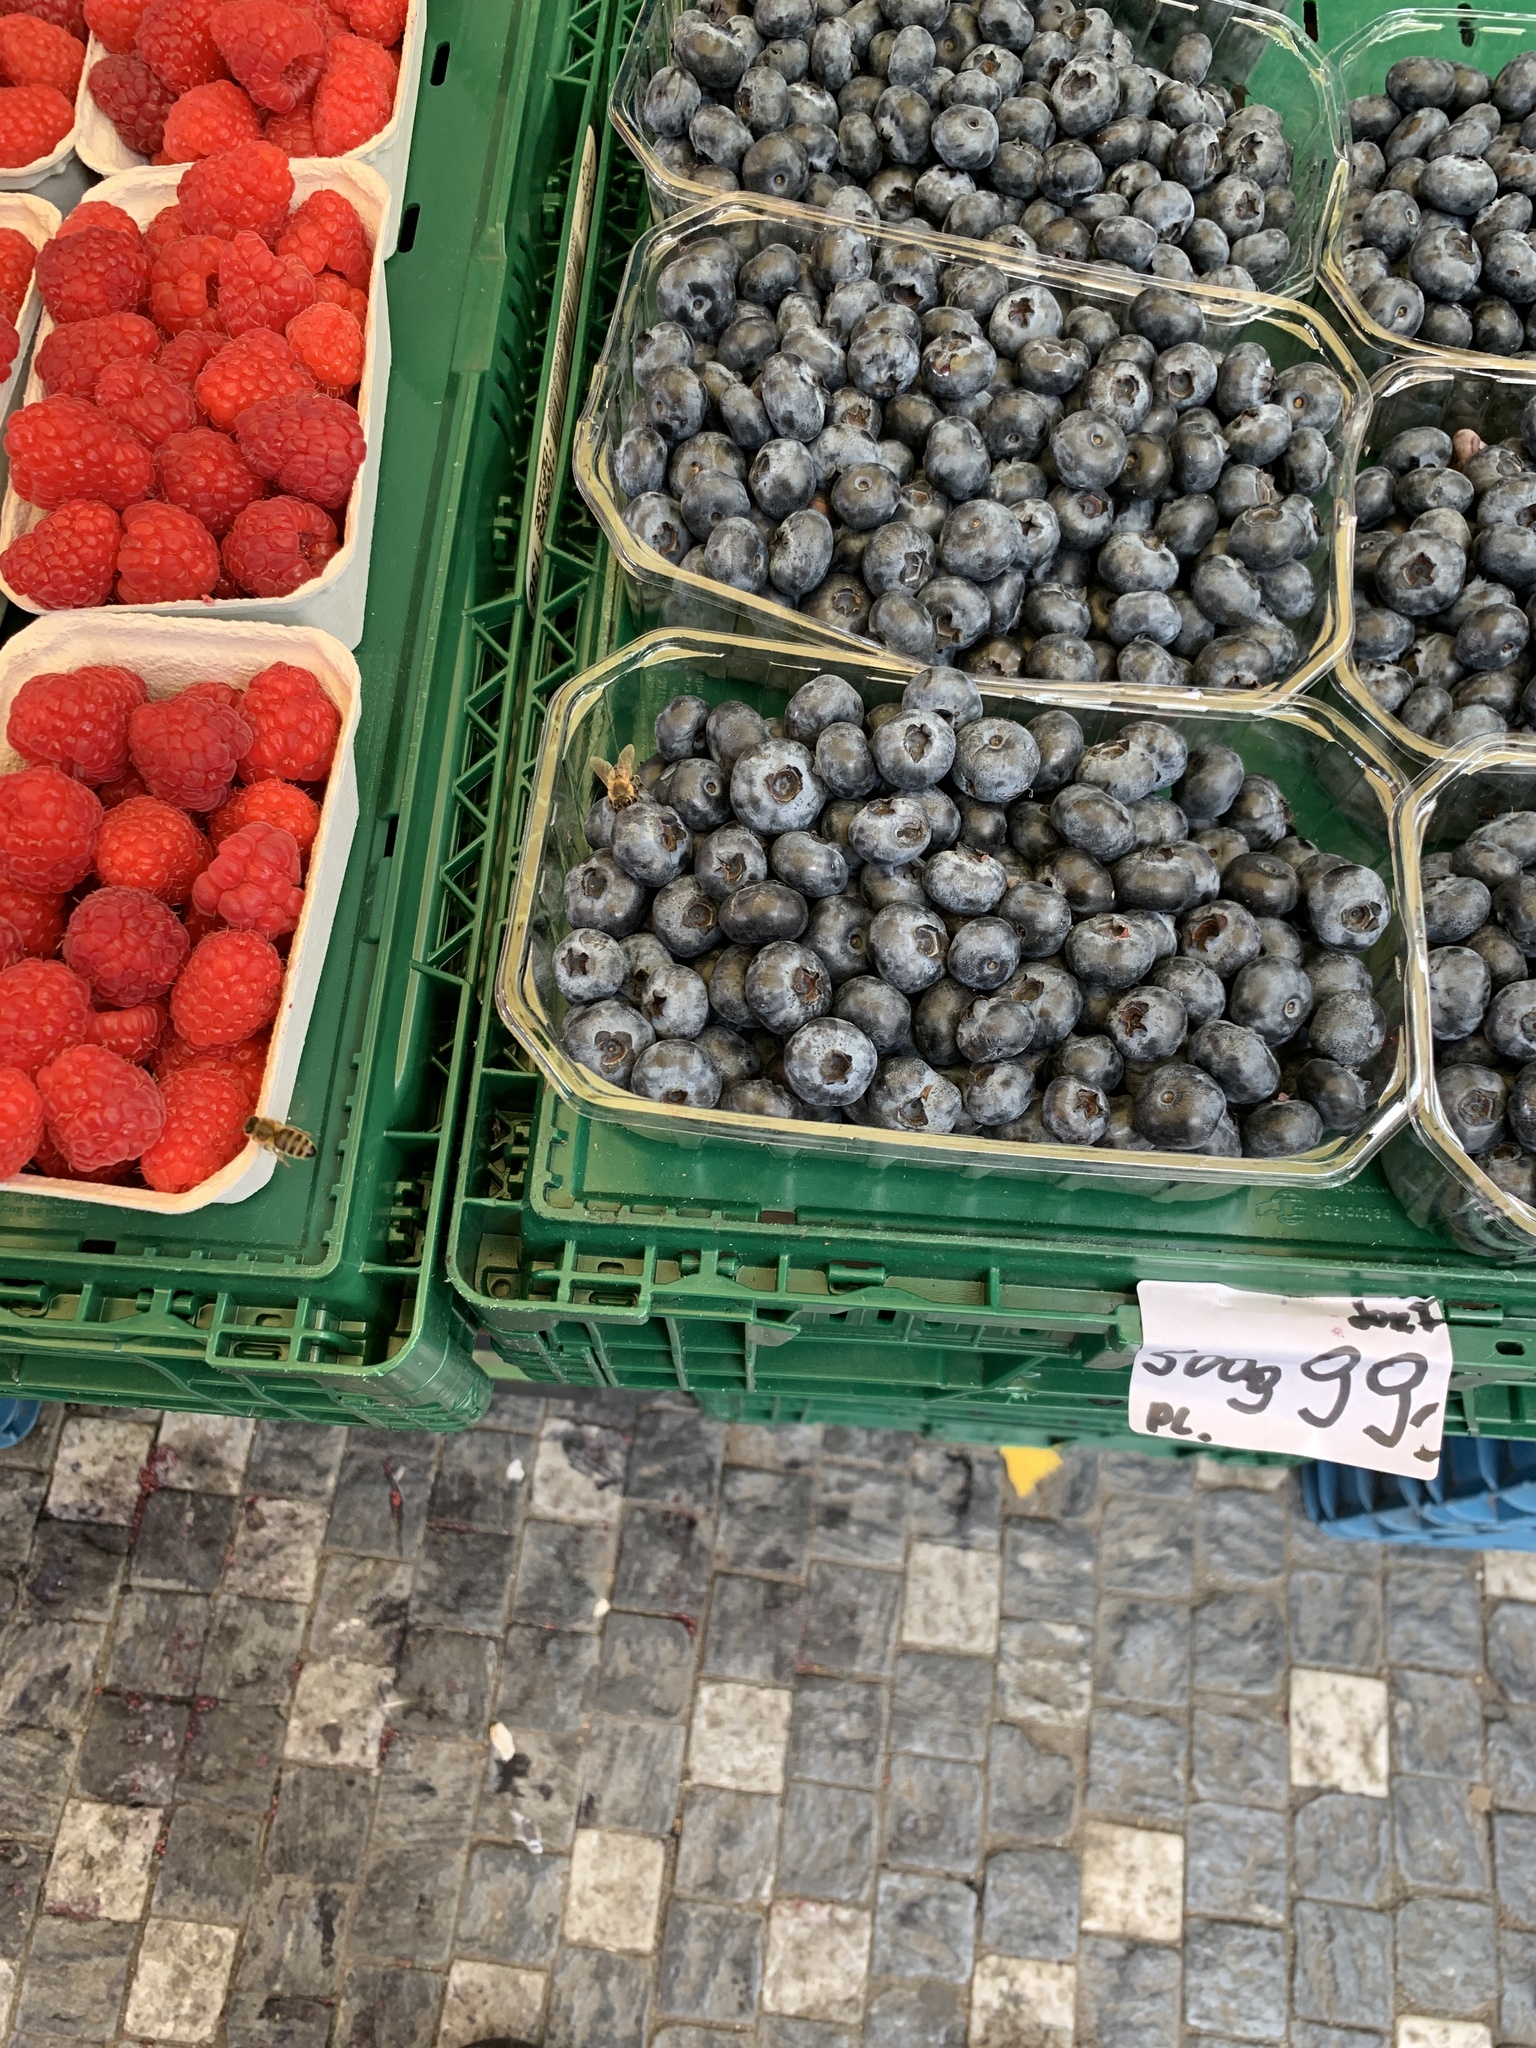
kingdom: Animalia
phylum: Arthropoda
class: Insecta
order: Hymenoptera
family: Apidae
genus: Apis
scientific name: Apis mellifera
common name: Honey bee
